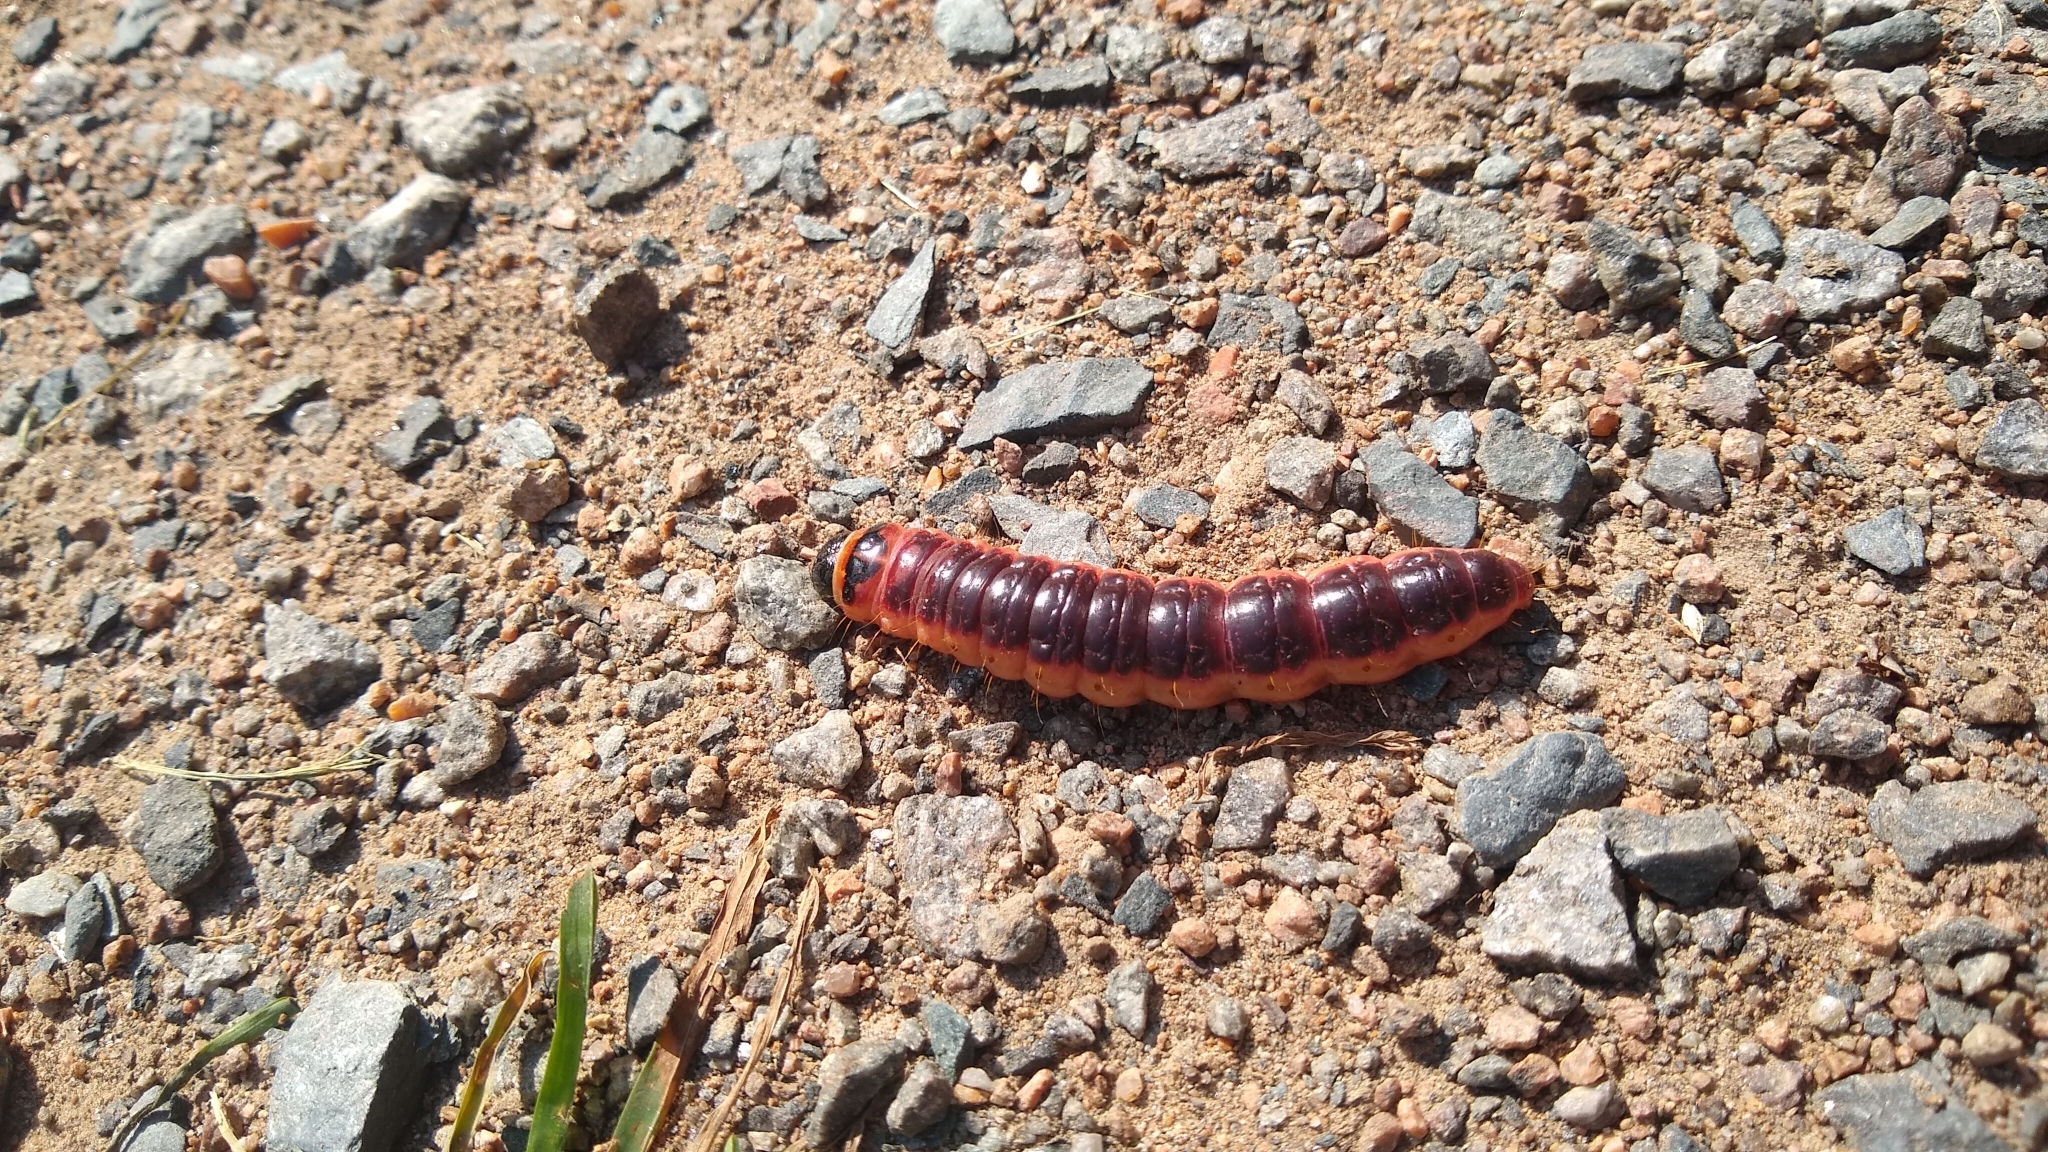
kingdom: Animalia
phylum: Arthropoda
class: Insecta
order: Lepidoptera
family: Cossidae
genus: Cossus
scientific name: Cossus cossus
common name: Goat moth
